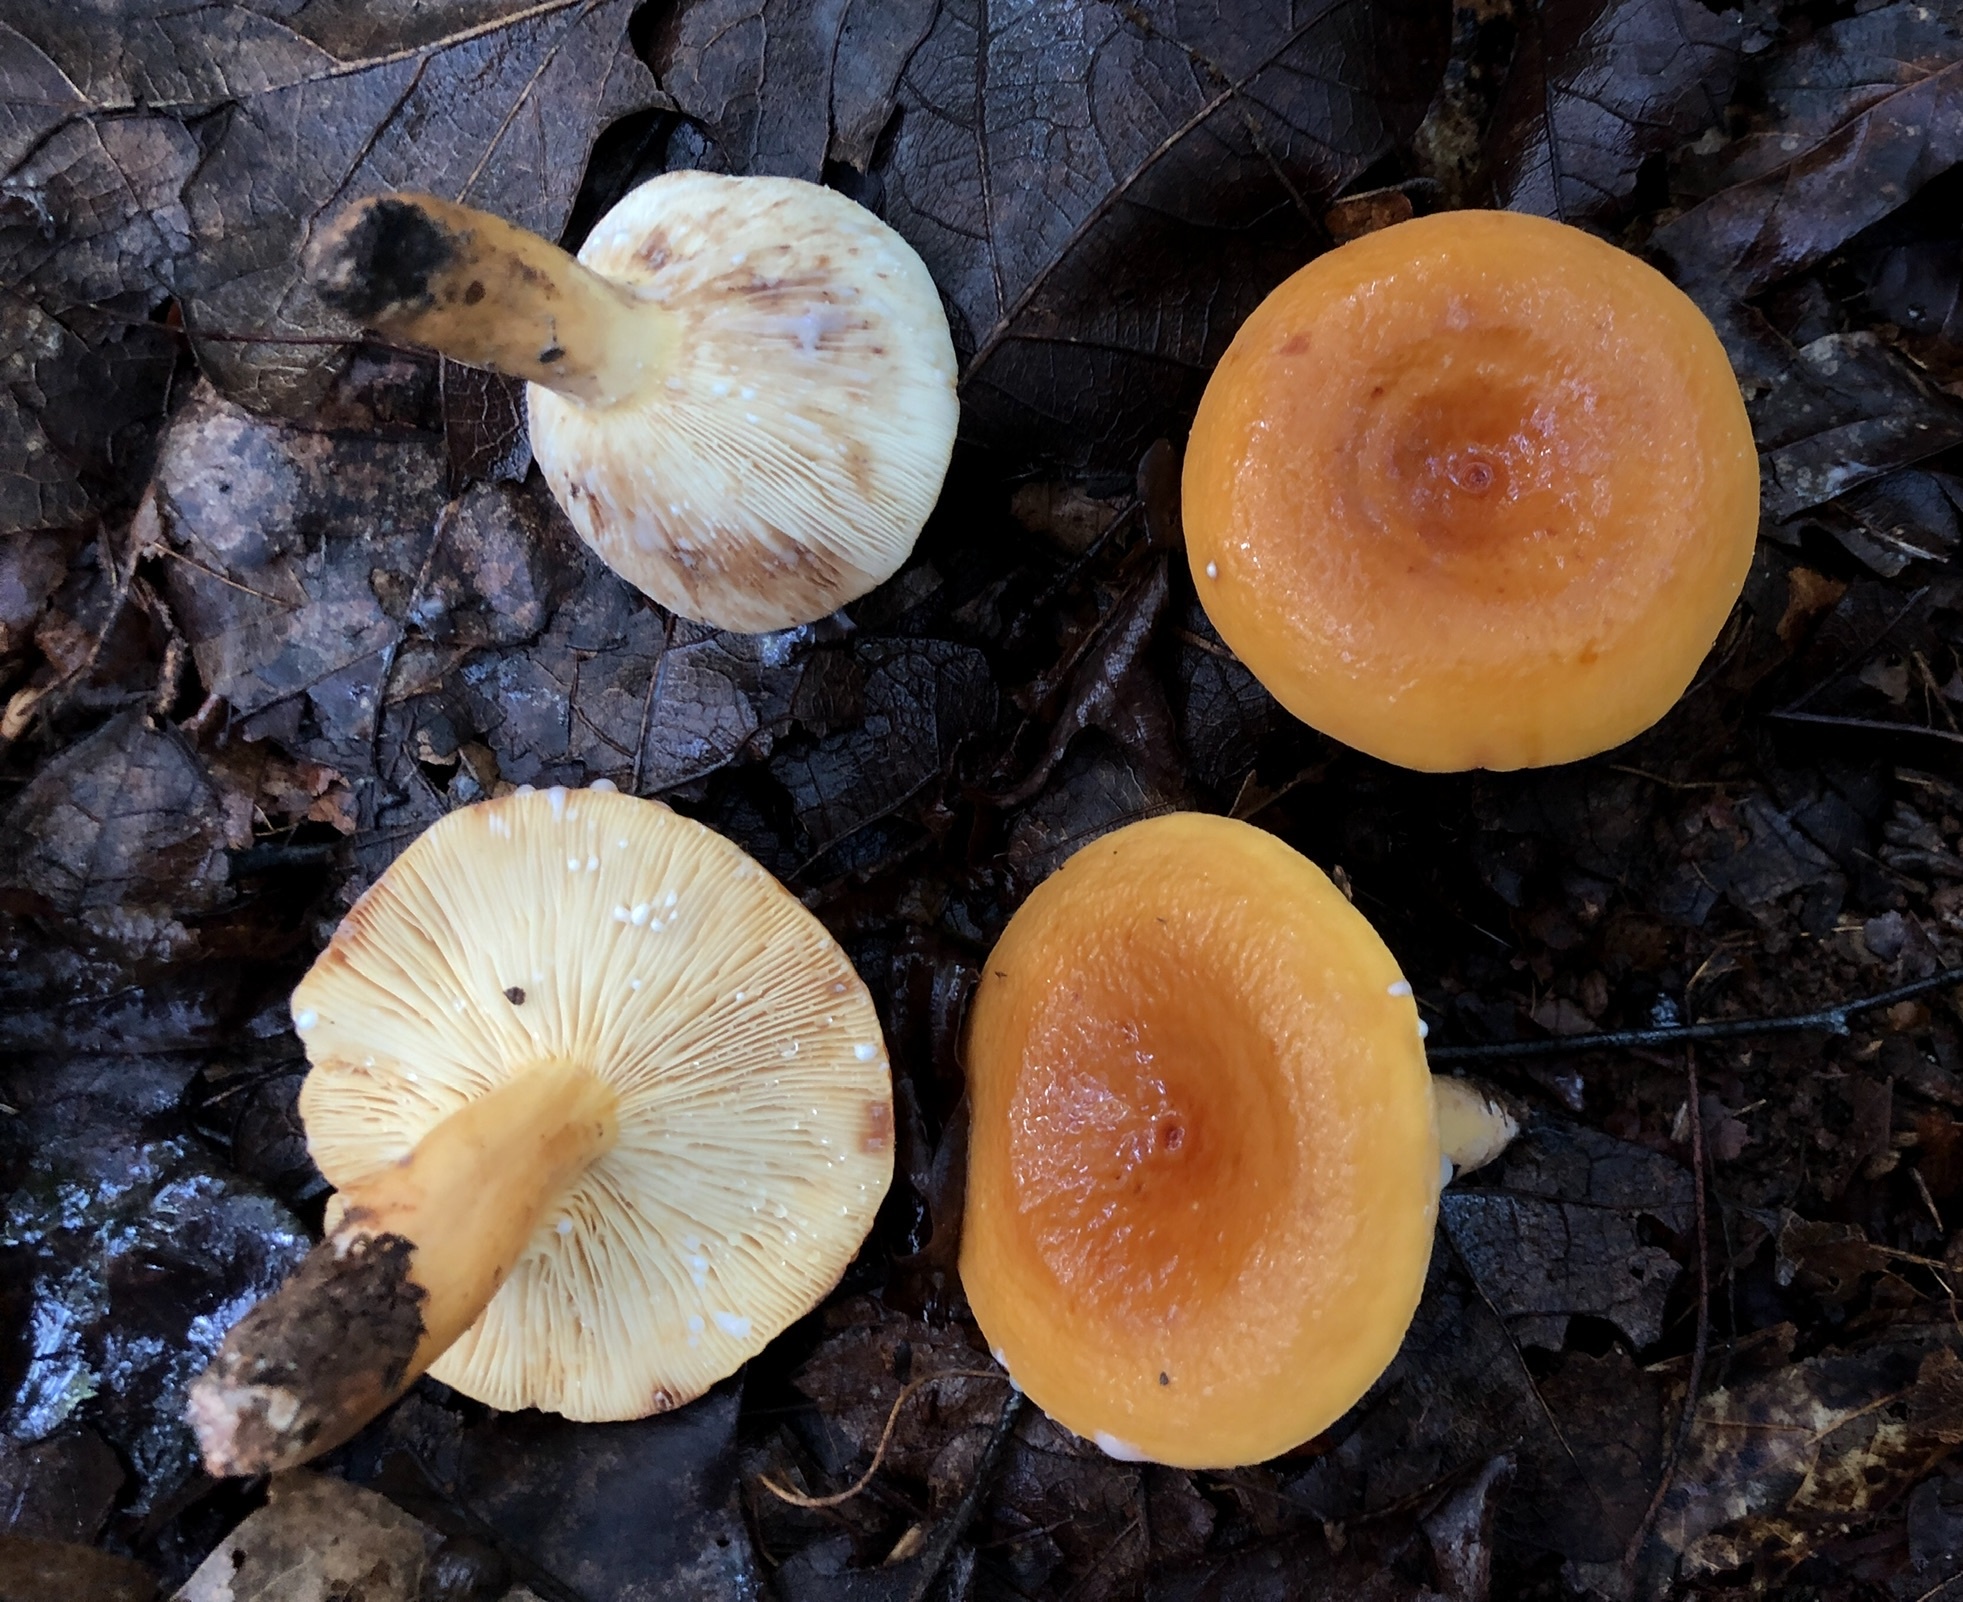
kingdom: Fungi
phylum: Basidiomycota
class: Agaricomycetes
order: Russulales
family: Russulaceae
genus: Lactifluus
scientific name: Lactifluus volemus
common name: Fishy milkcap
